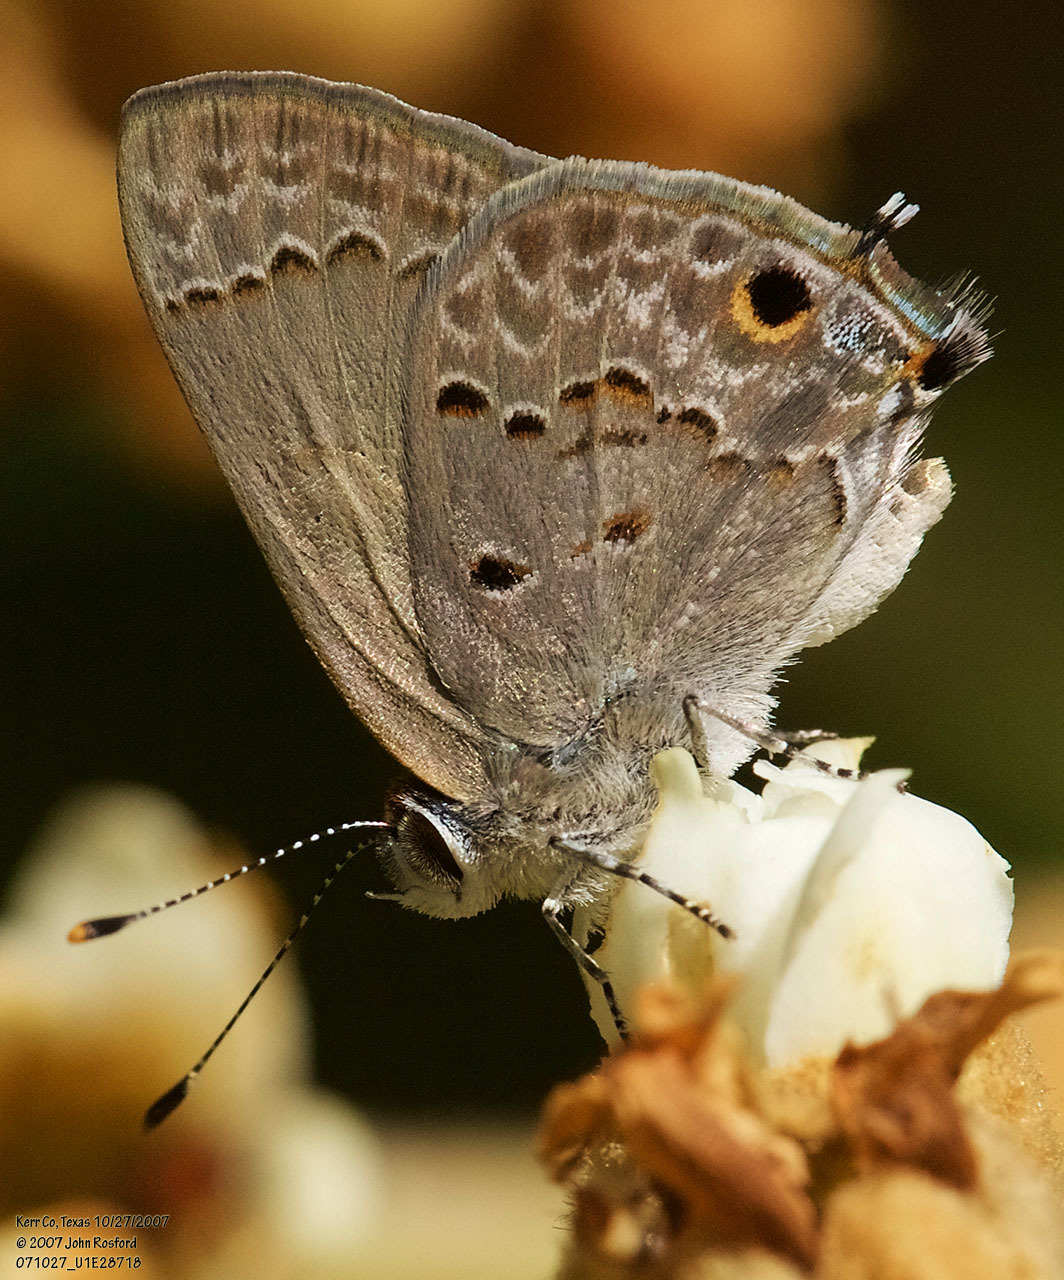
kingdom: Animalia
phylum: Arthropoda
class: Insecta
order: Lepidoptera
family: Lycaenidae
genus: Callicista
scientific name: Callicista columella
